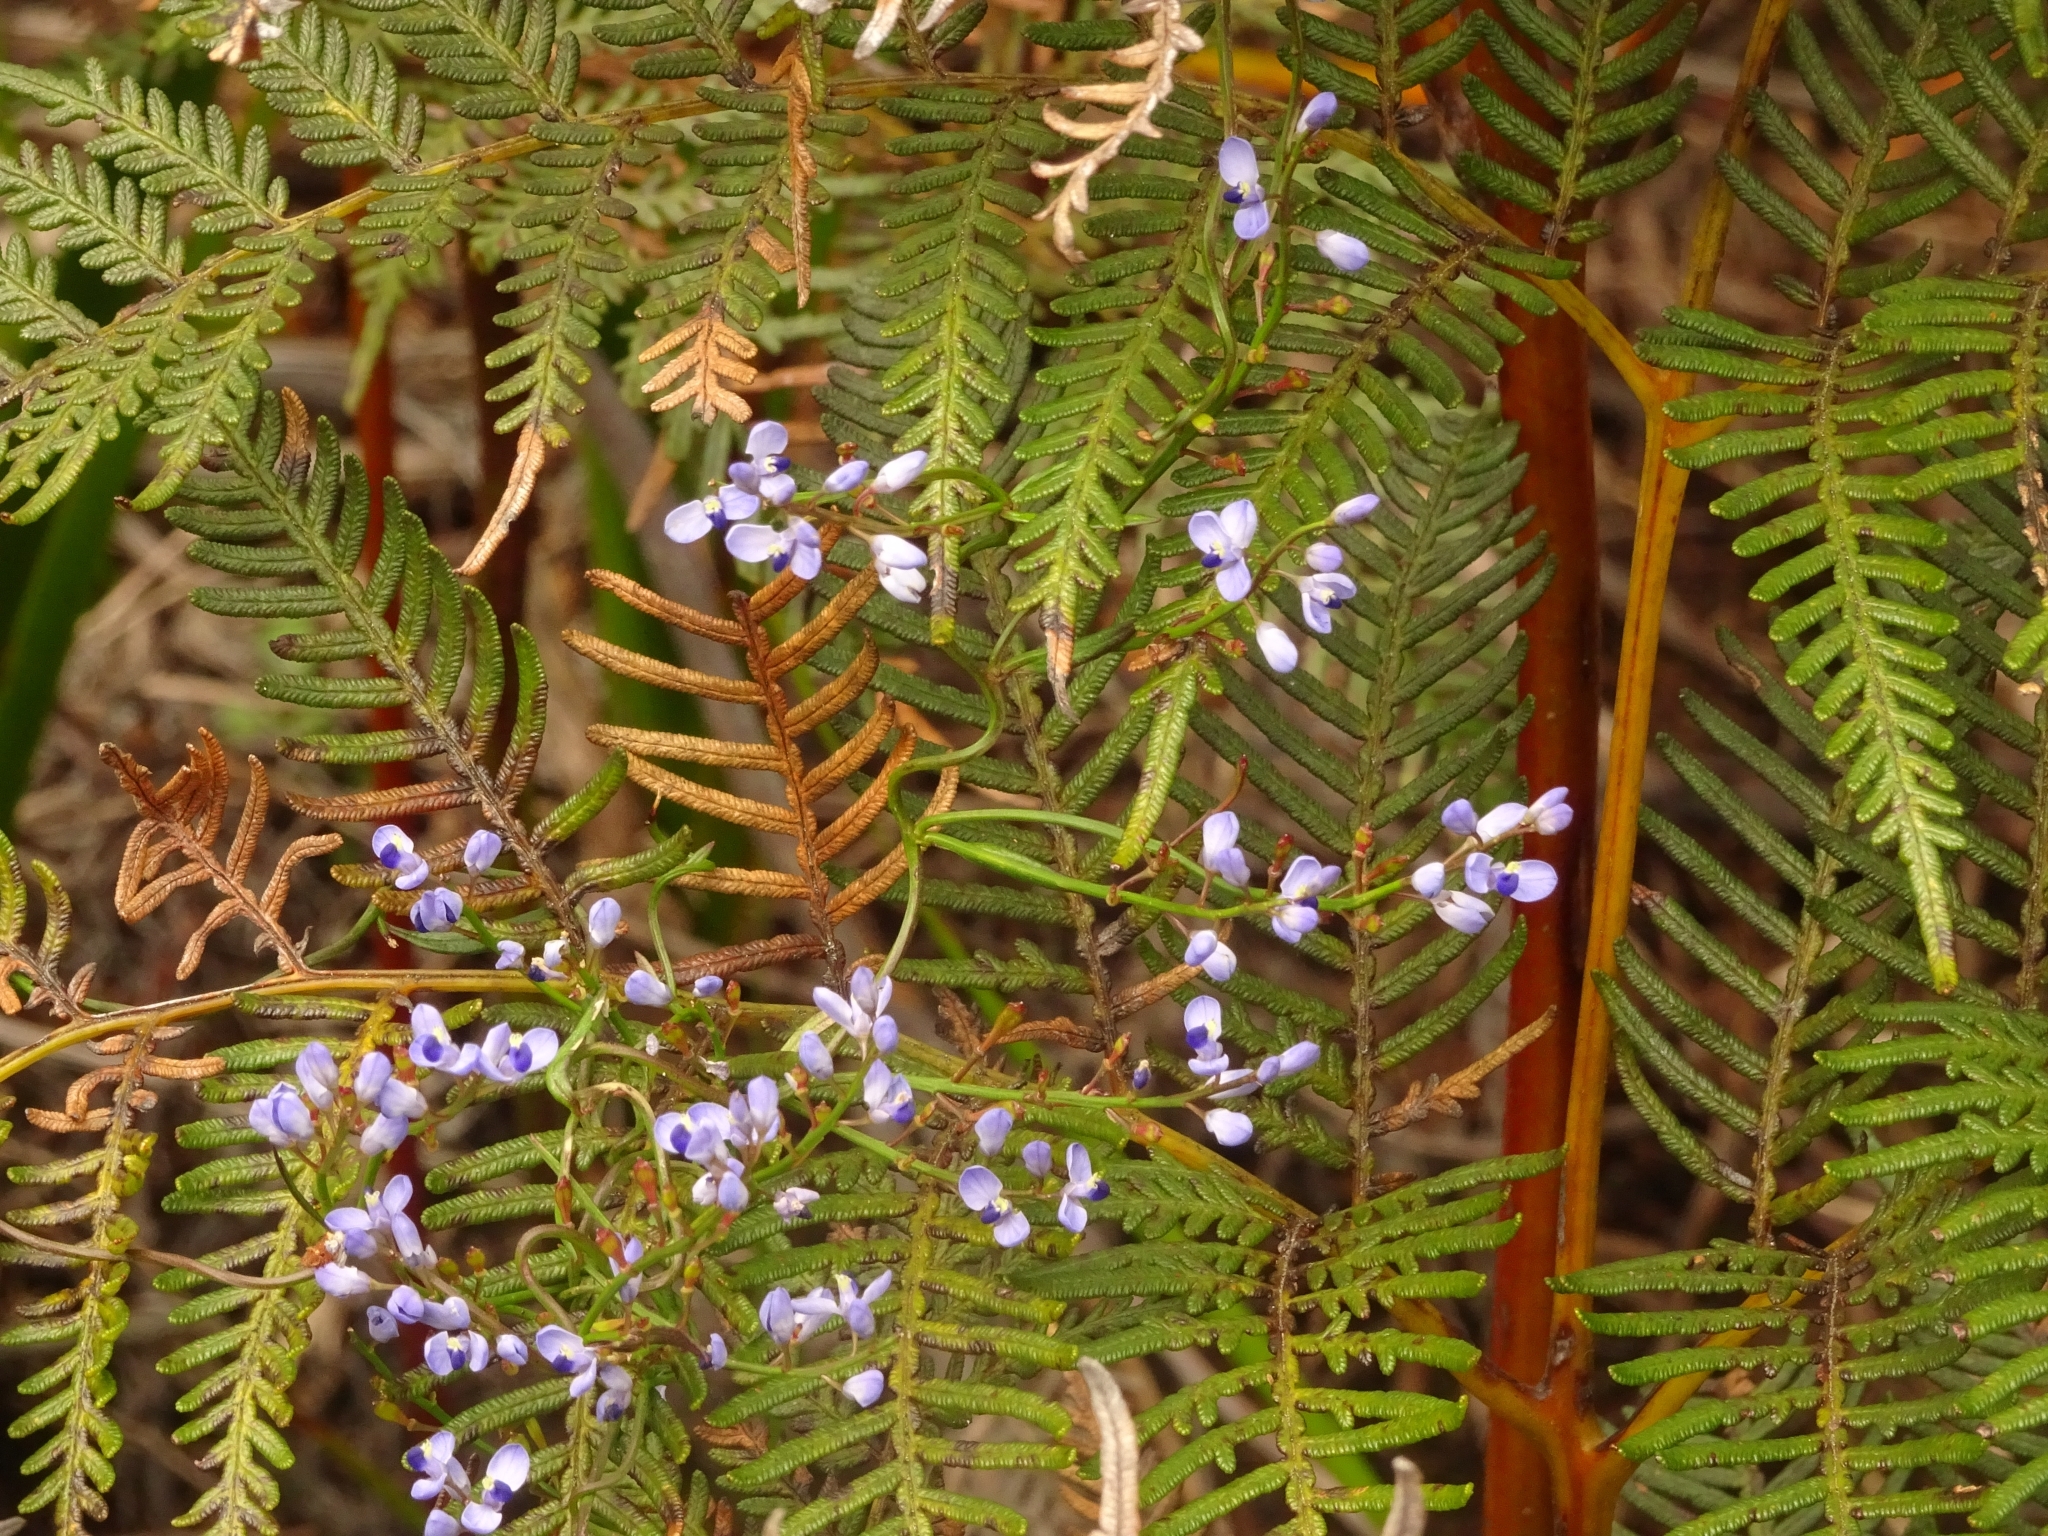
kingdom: Plantae
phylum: Tracheophyta
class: Magnoliopsida
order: Fabales
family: Polygalaceae
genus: Comesperma
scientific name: Comesperma volubile
